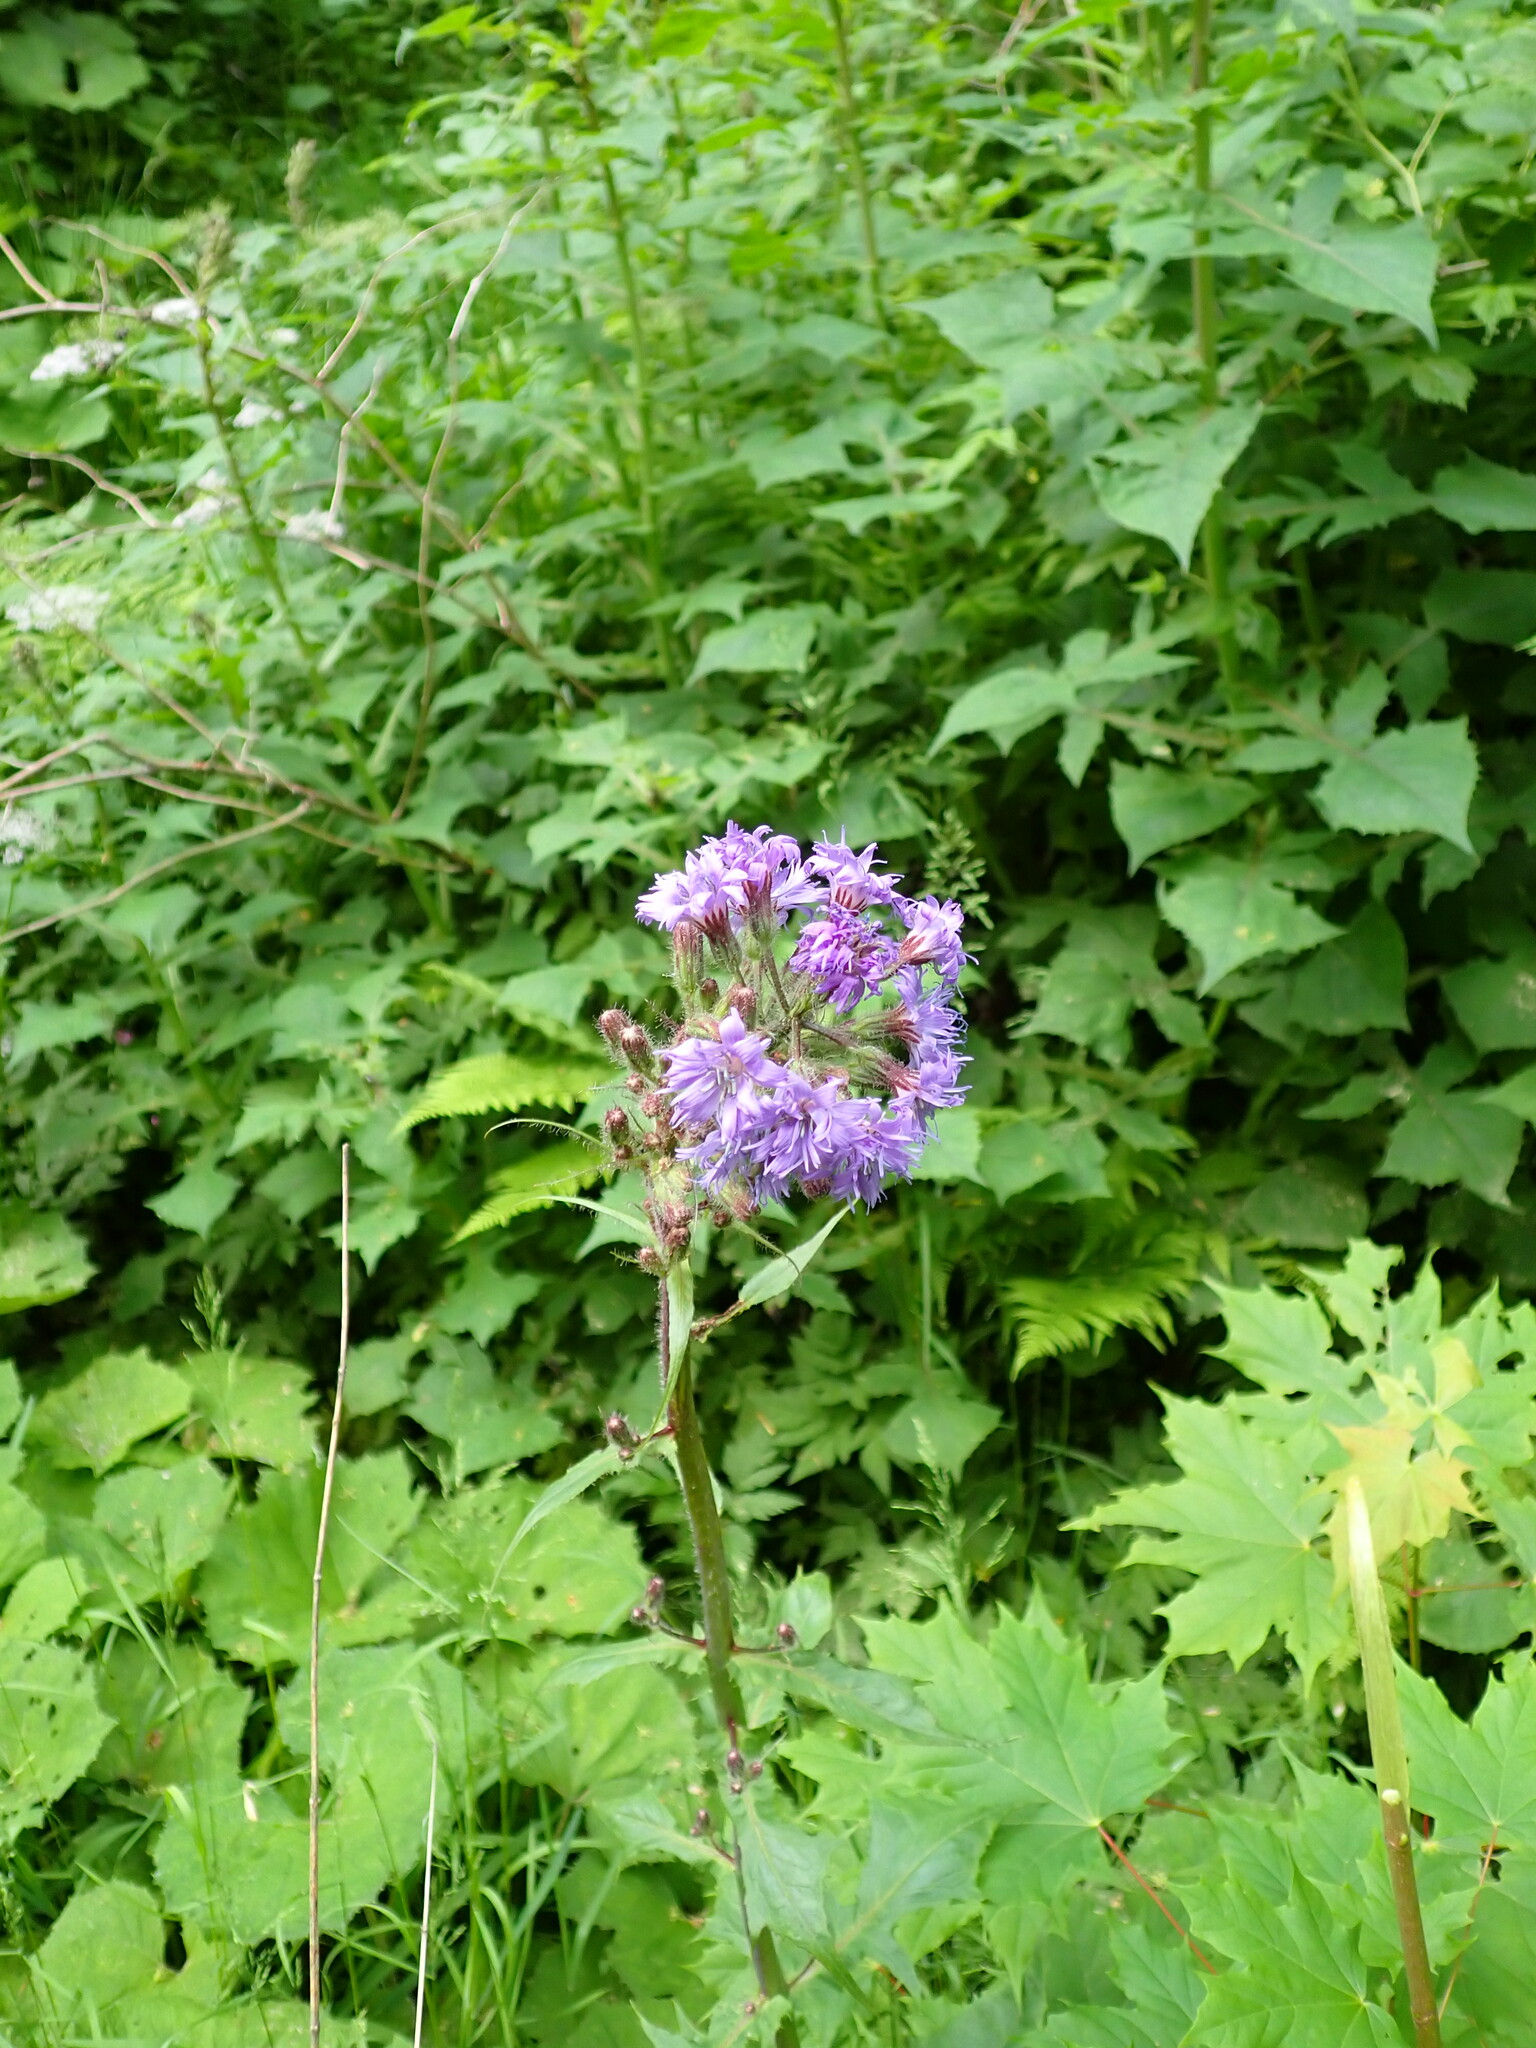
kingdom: Plantae
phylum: Tracheophyta
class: Magnoliopsida
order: Asterales
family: Asteraceae
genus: Cicerbita
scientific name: Cicerbita alpina
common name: Alpine blue-sow-thistle
